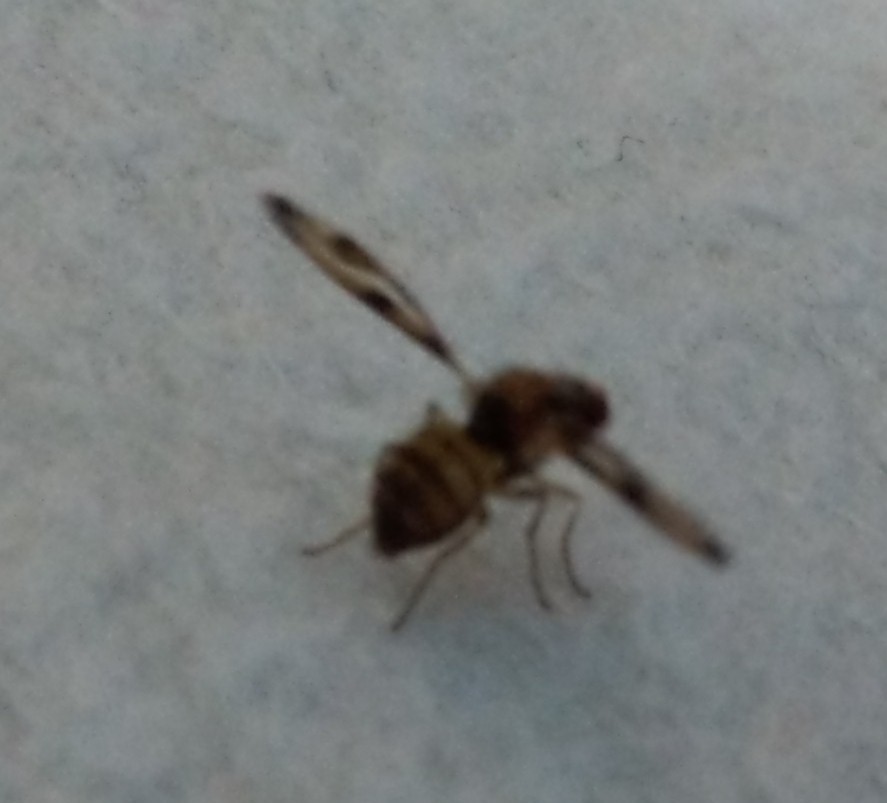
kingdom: Animalia
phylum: Arthropoda
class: Insecta
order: Diptera
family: Pallopteridae
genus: Toxonevra
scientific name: Toxonevra muliebris
